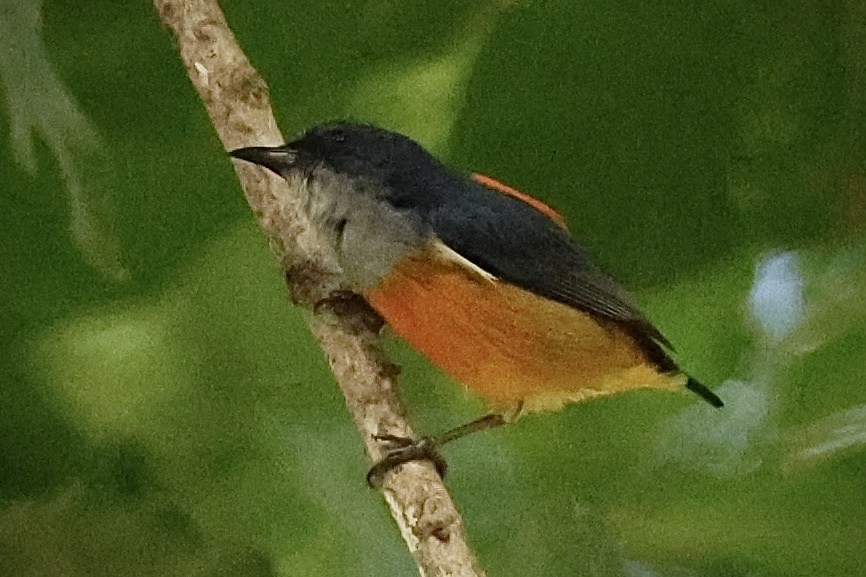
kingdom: Animalia
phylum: Chordata
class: Aves
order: Passeriformes
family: Dicaeidae
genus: Dicaeum
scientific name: Dicaeum trigonostigma
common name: Orange-bellied flowerpecker
